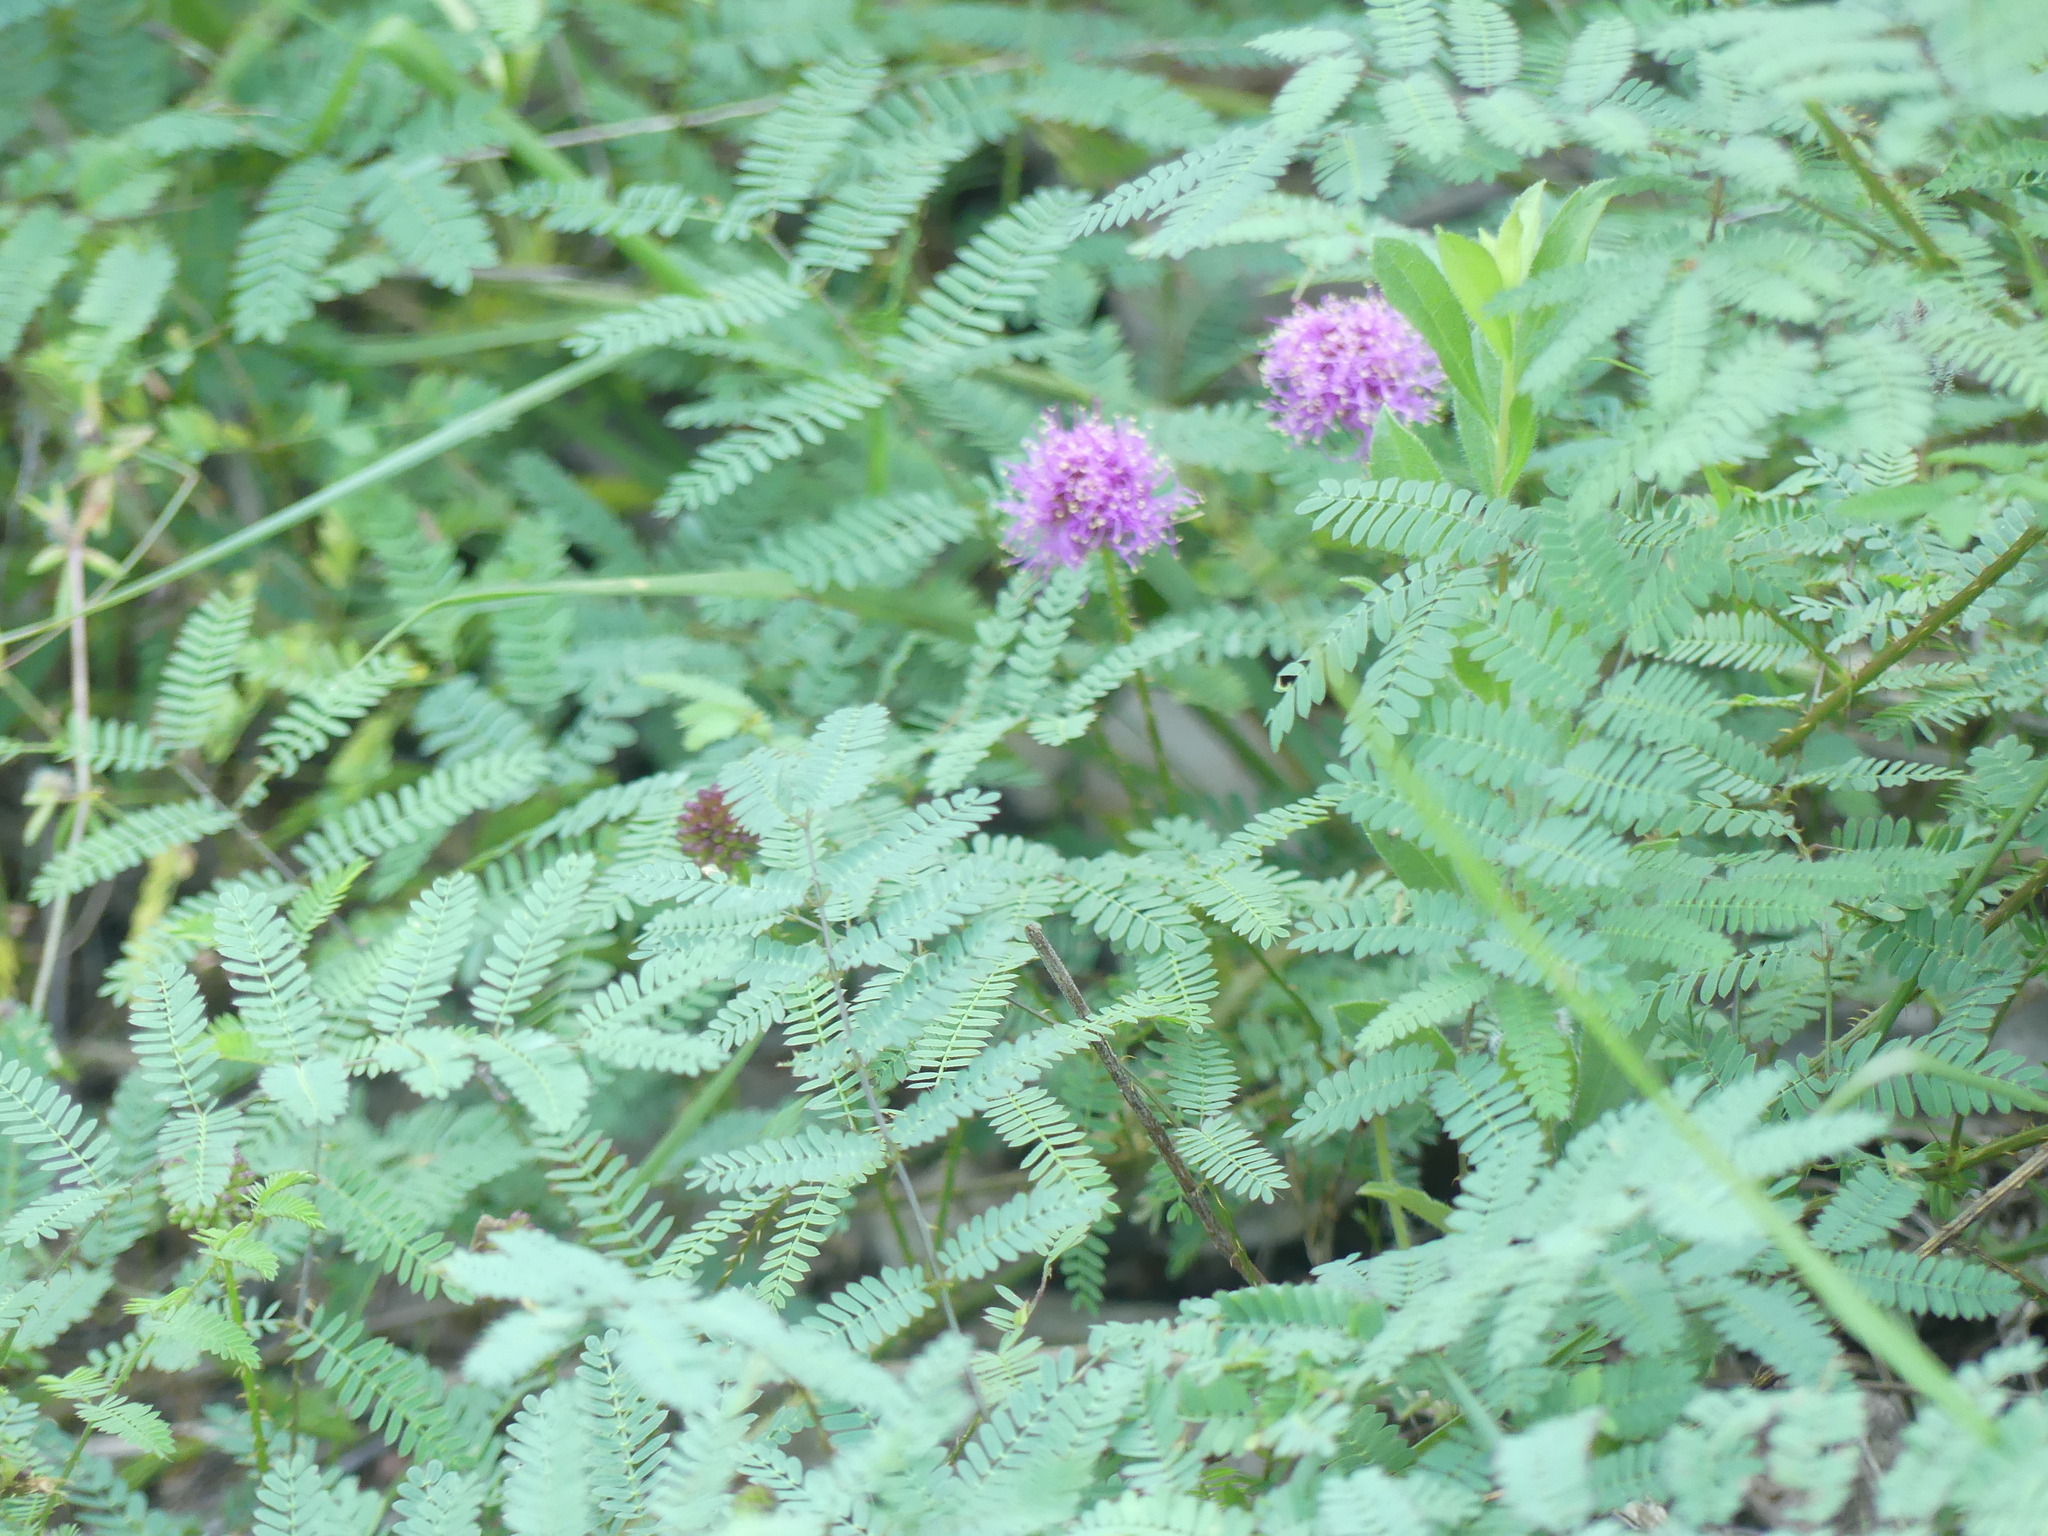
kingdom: Plantae
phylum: Tracheophyta
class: Magnoliopsida
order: Fabales
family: Fabaceae
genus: Mimosa
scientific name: Mimosa quadrivalvis
